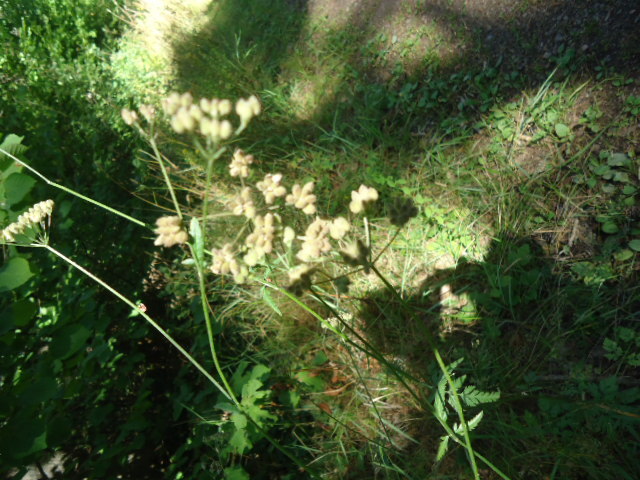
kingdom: Plantae
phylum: Tracheophyta
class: Magnoliopsida
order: Apiales
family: Apiaceae
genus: Torilis
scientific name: Torilis japonica
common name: Upright hedge-parsley
